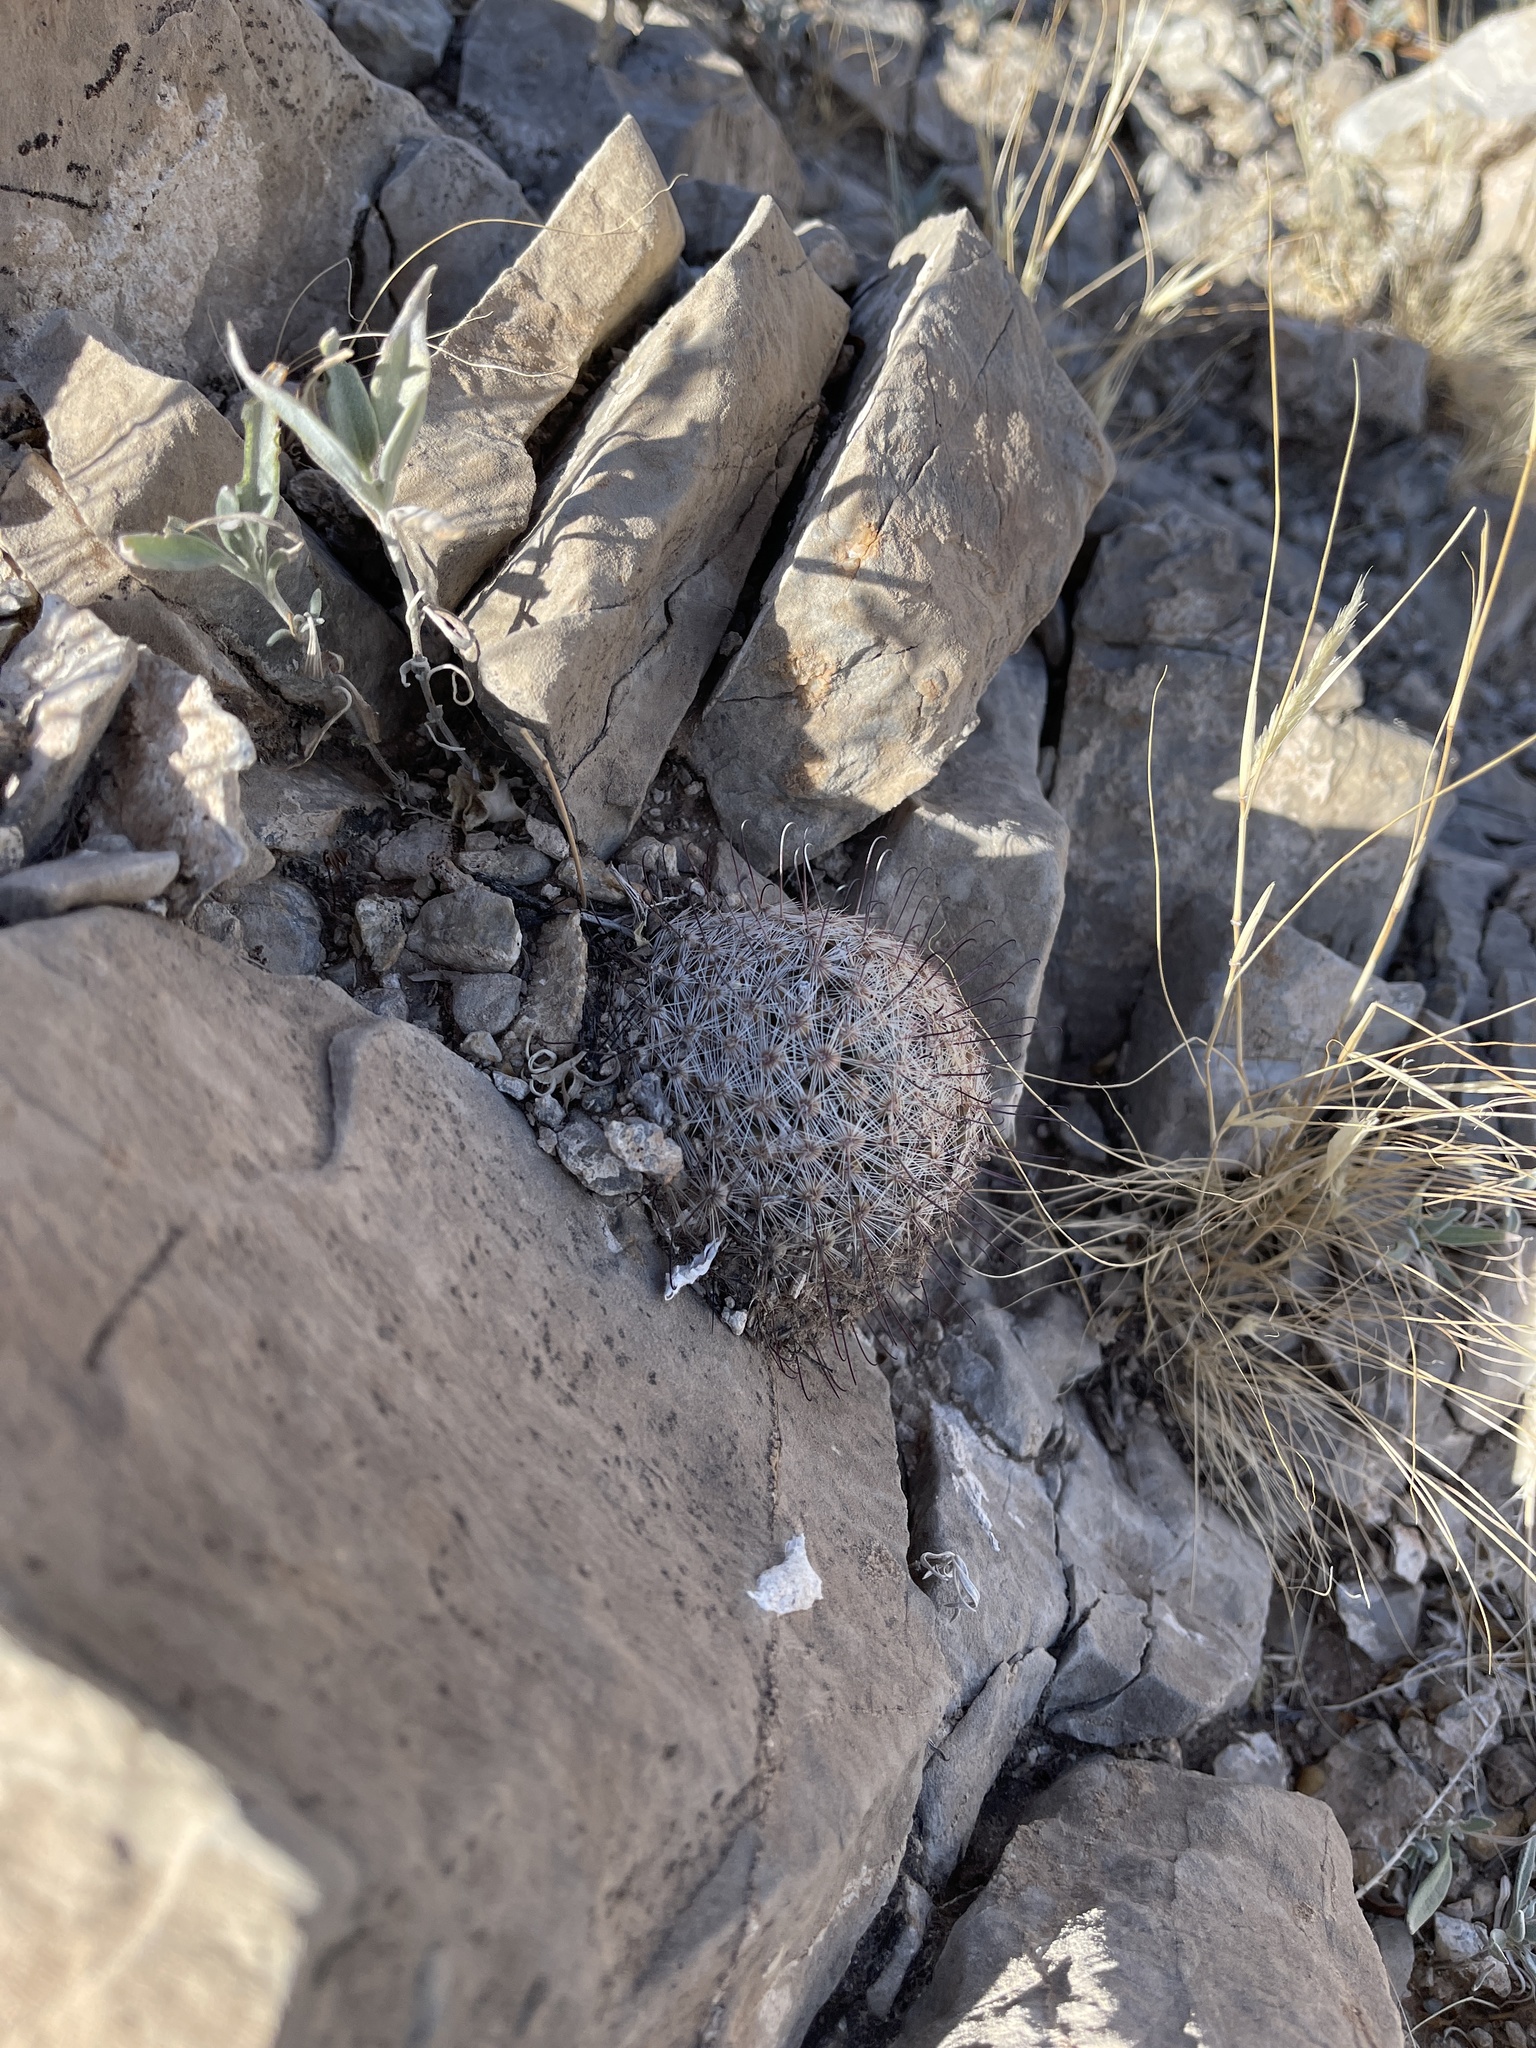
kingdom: Plantae
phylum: Tracheophyta
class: Magnoliopsida
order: Caryophyllales
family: Cactaceae
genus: Cochemiea
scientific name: Cochemiea grahamii
